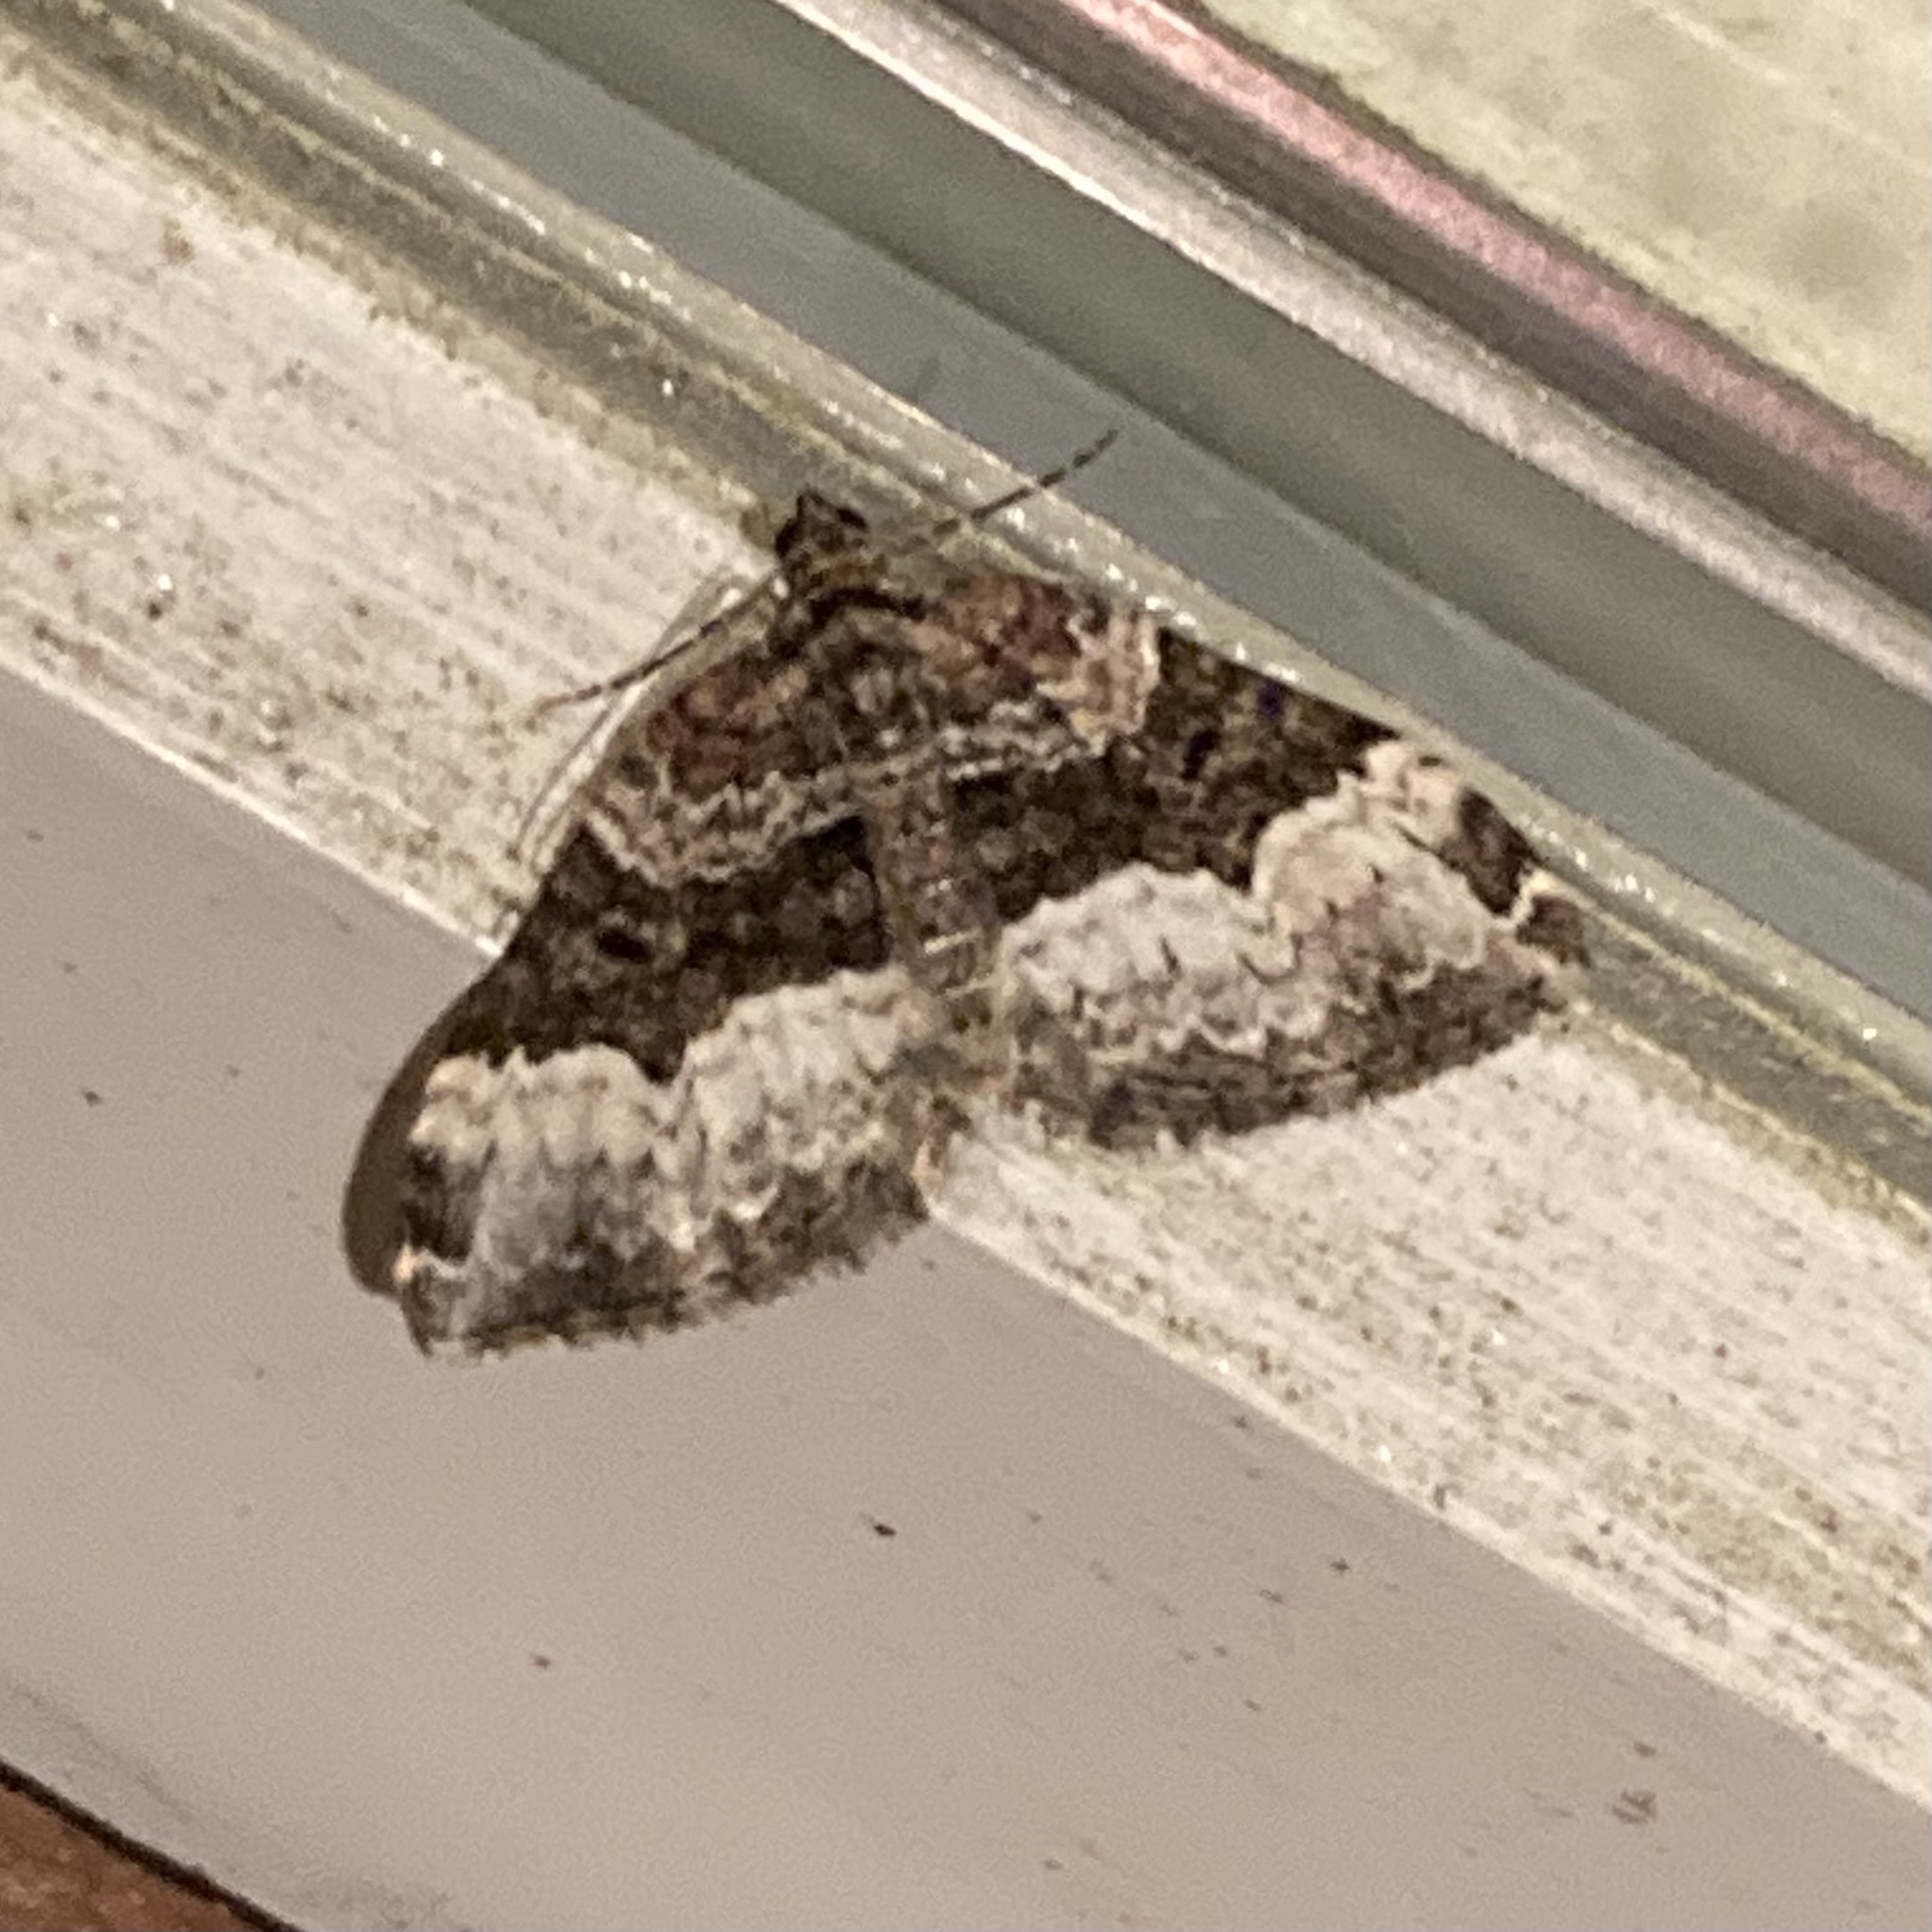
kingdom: Animalia
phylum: Arthropoda
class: Insecta
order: Lepidoptera
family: Geometridae
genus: Euphyia
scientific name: Euphyia intermediata
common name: Sharp-angled carpet
